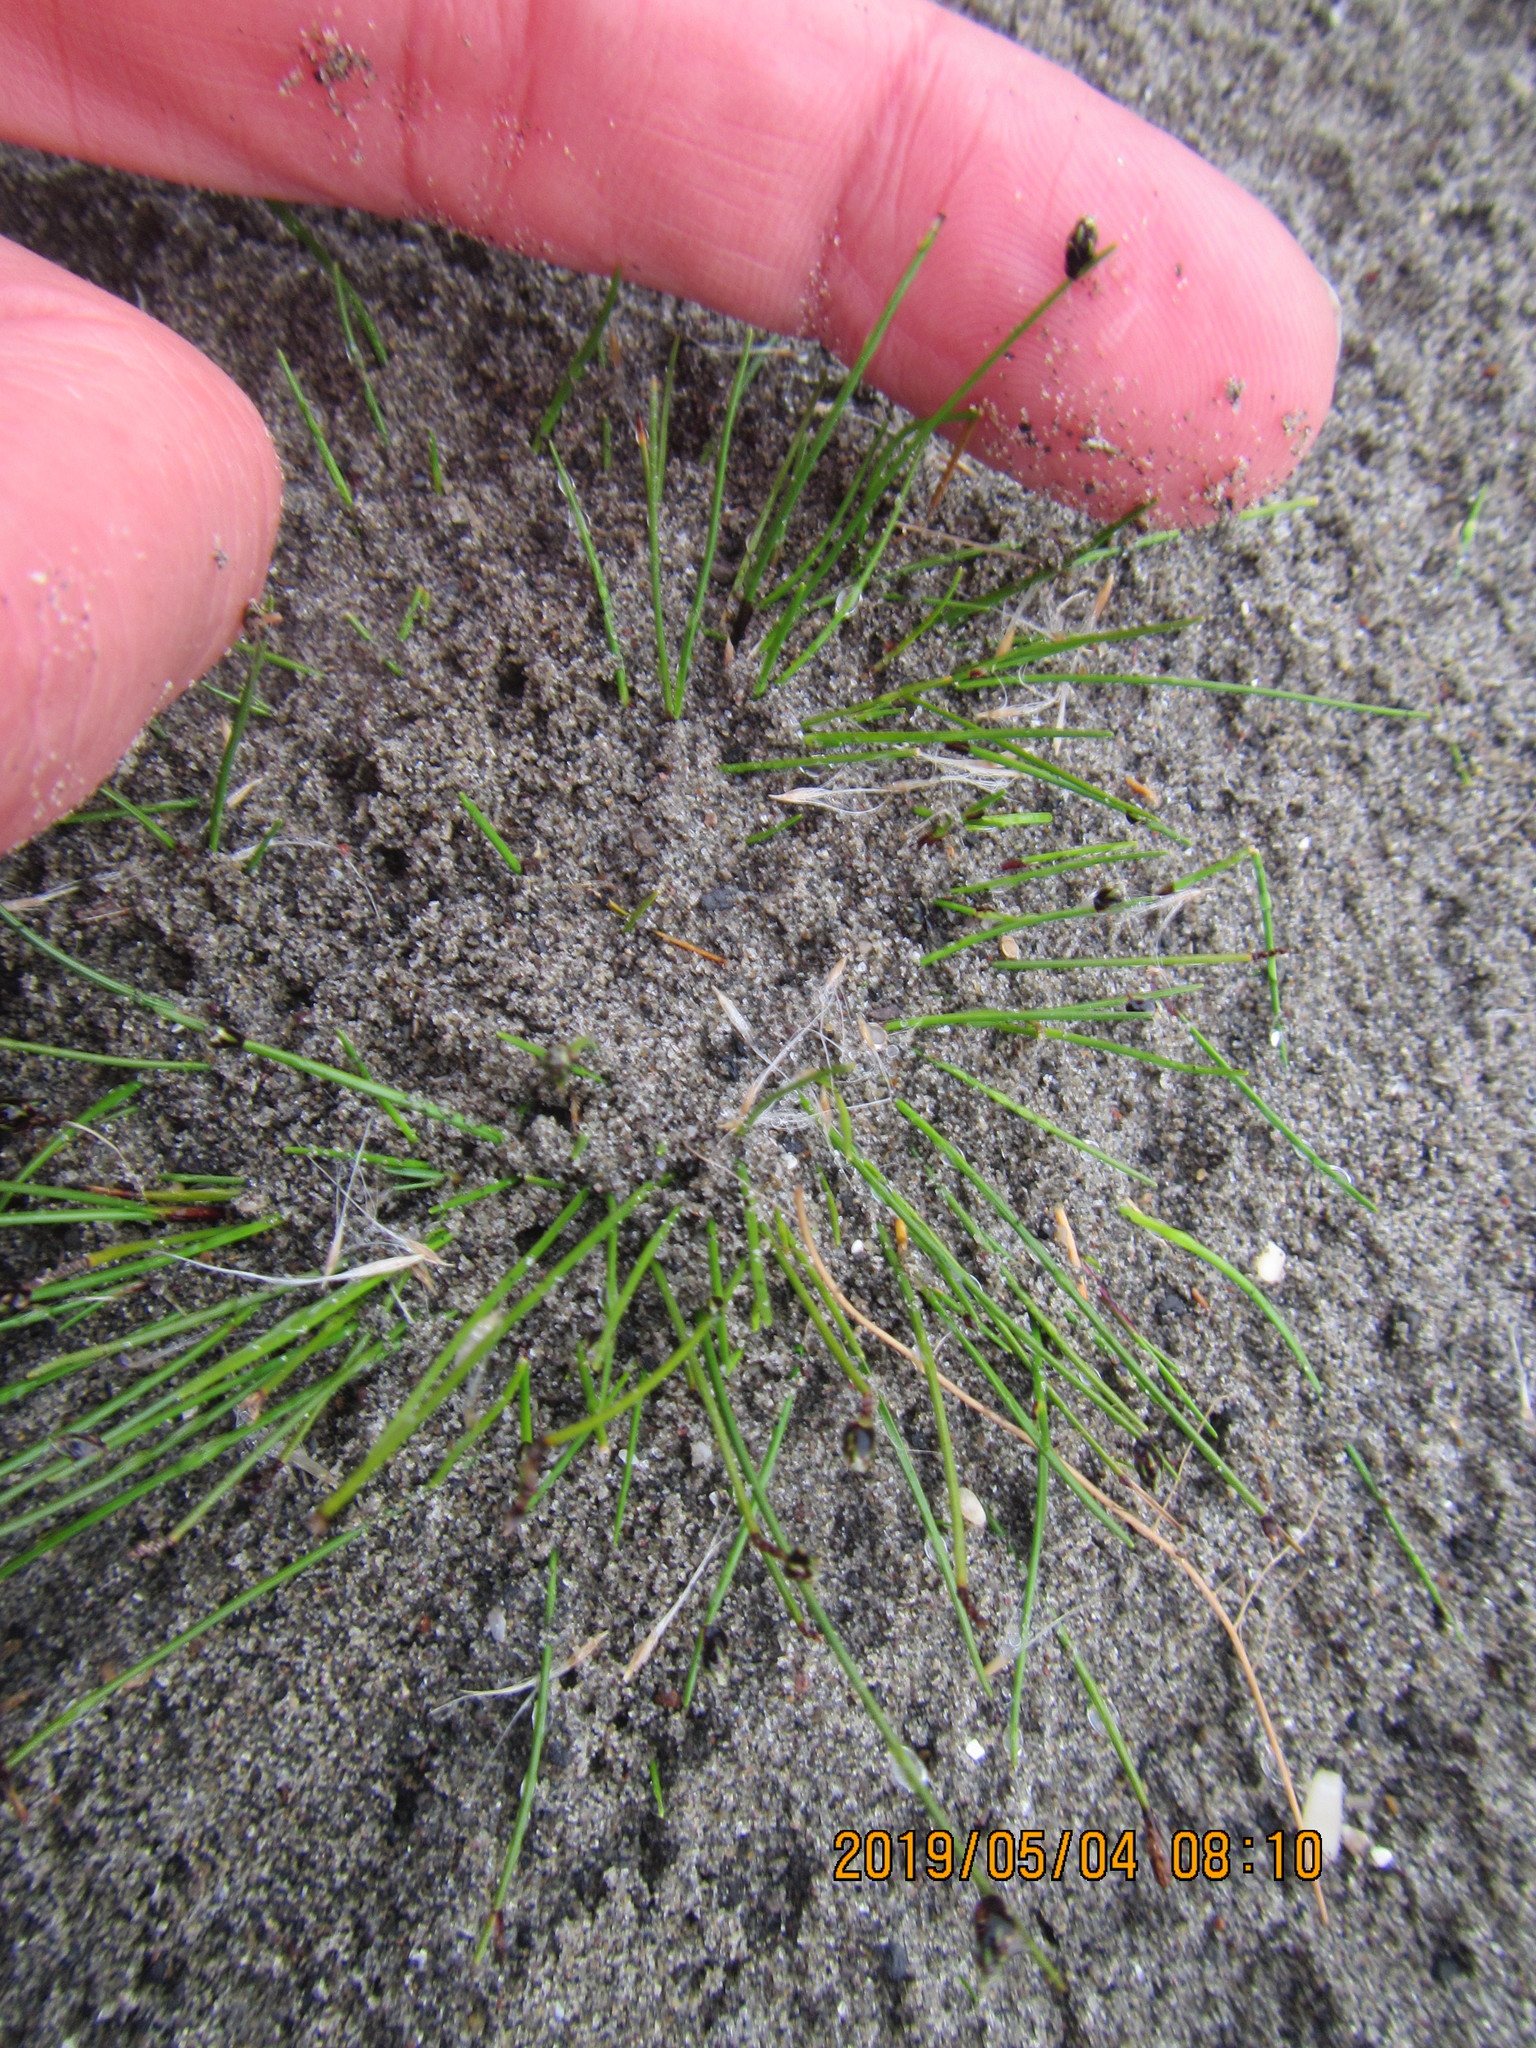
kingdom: Plantae
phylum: Tracheophyta
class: Liliopsida
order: Poales
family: Cyperaceae
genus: Isolepis
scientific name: Isolepis cernua
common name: Slender club-rush
